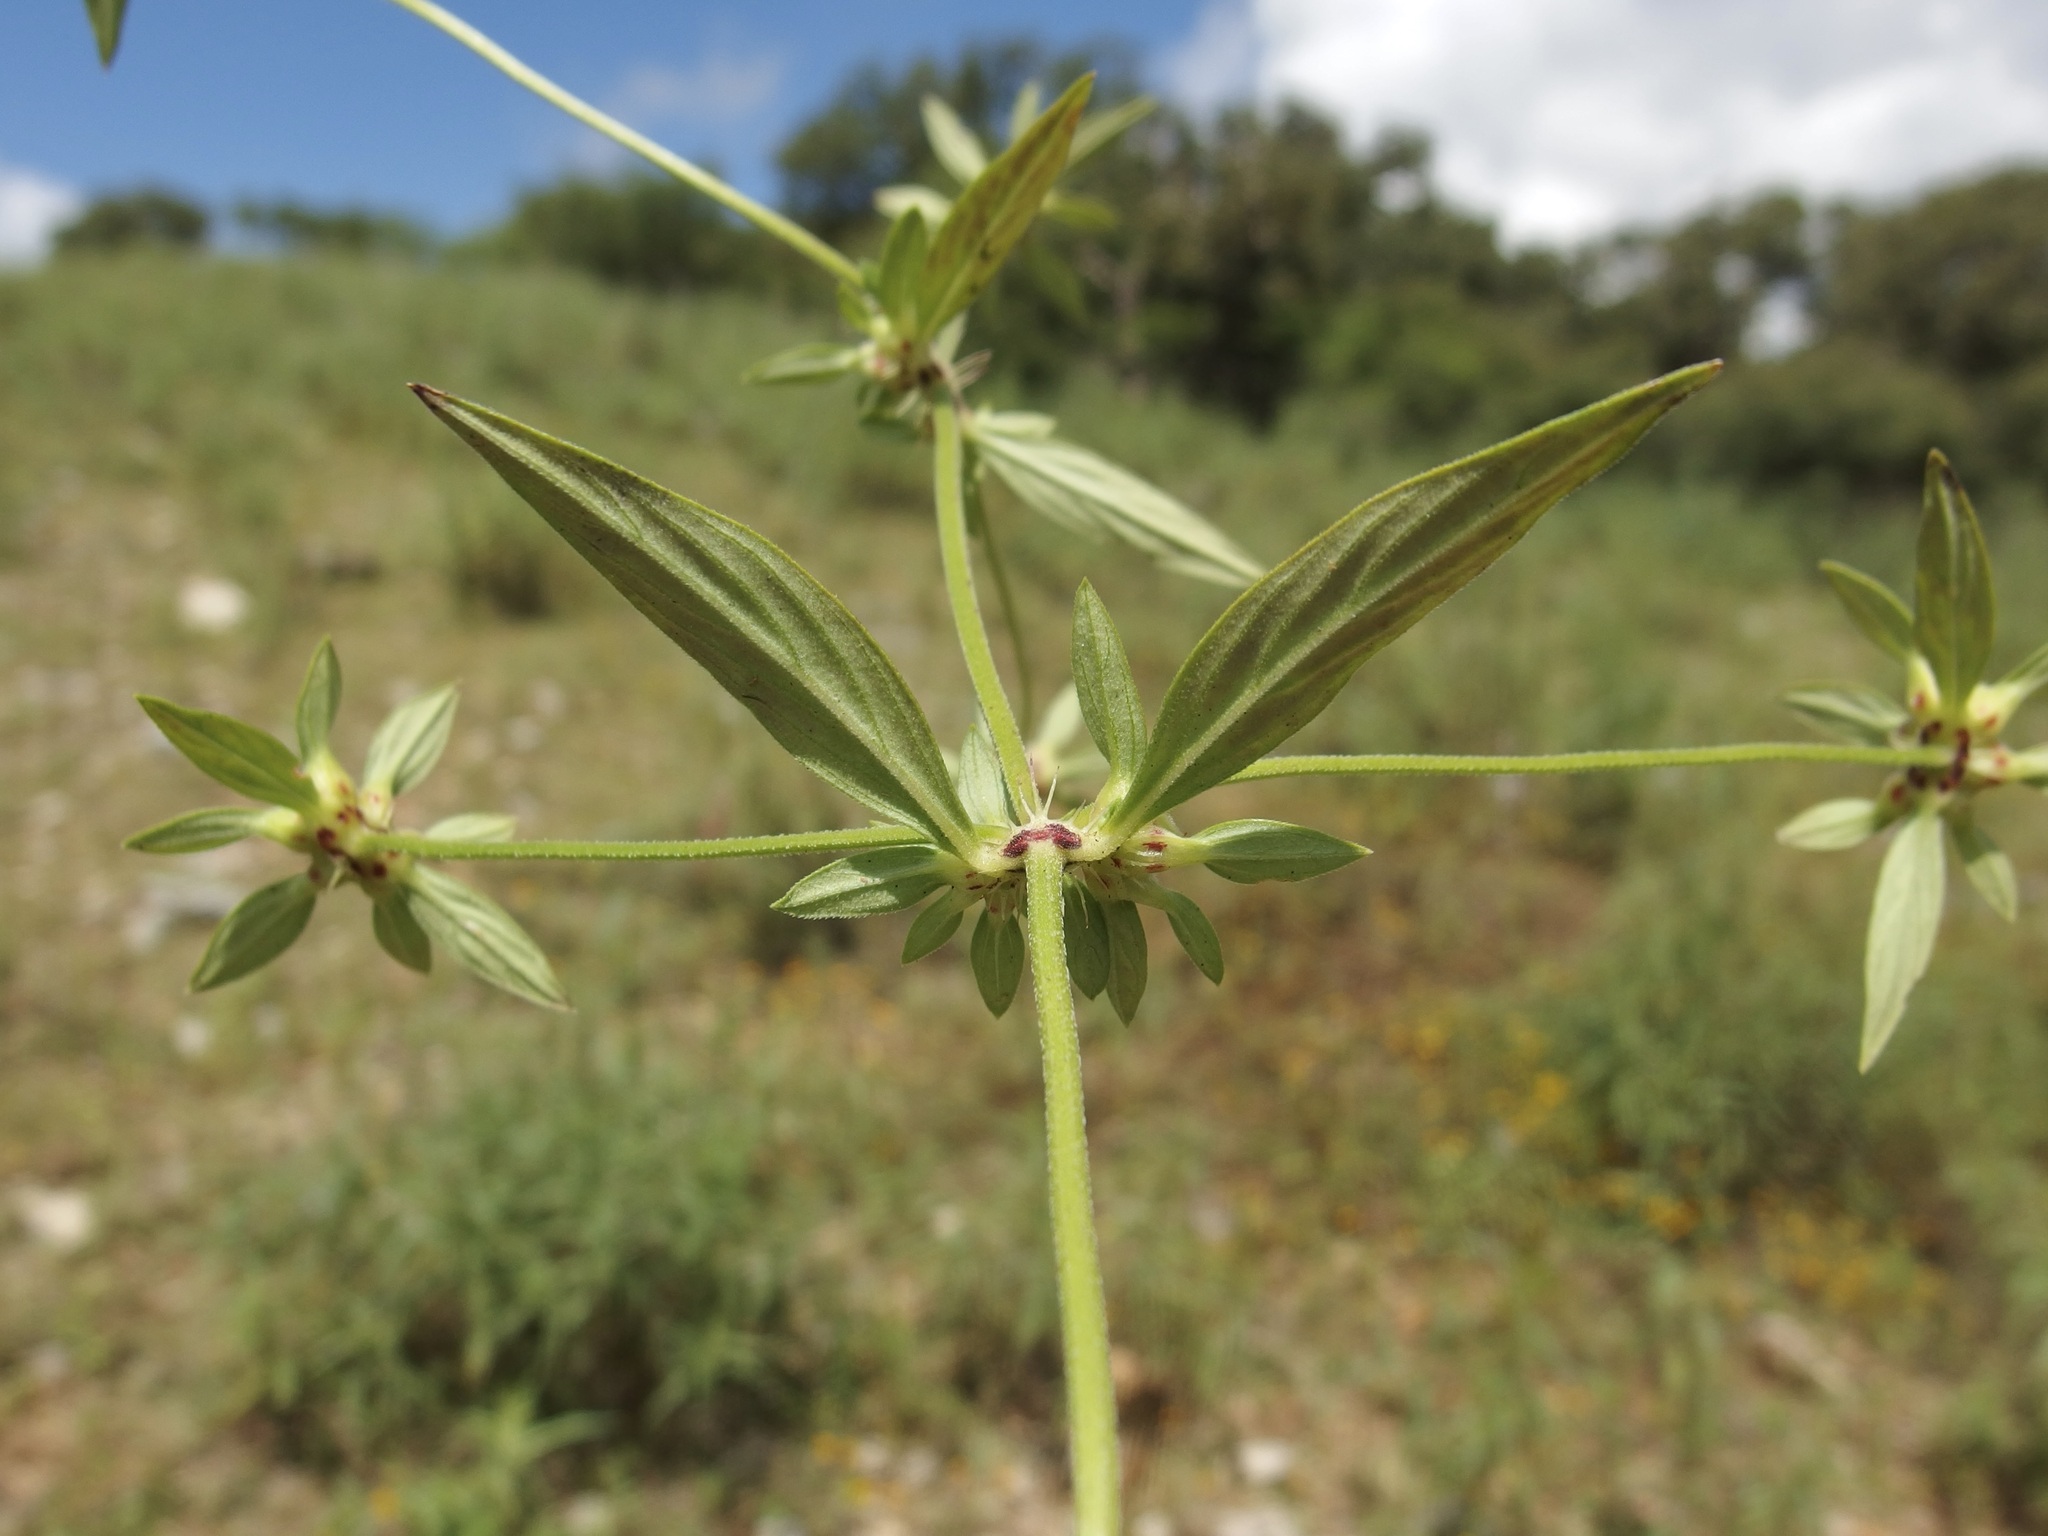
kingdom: Plantae
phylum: Tracheophyta
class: Magnoliopsida
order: Gentianales
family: Rubiaceae
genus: Crusea
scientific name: Crusea psyllioides
